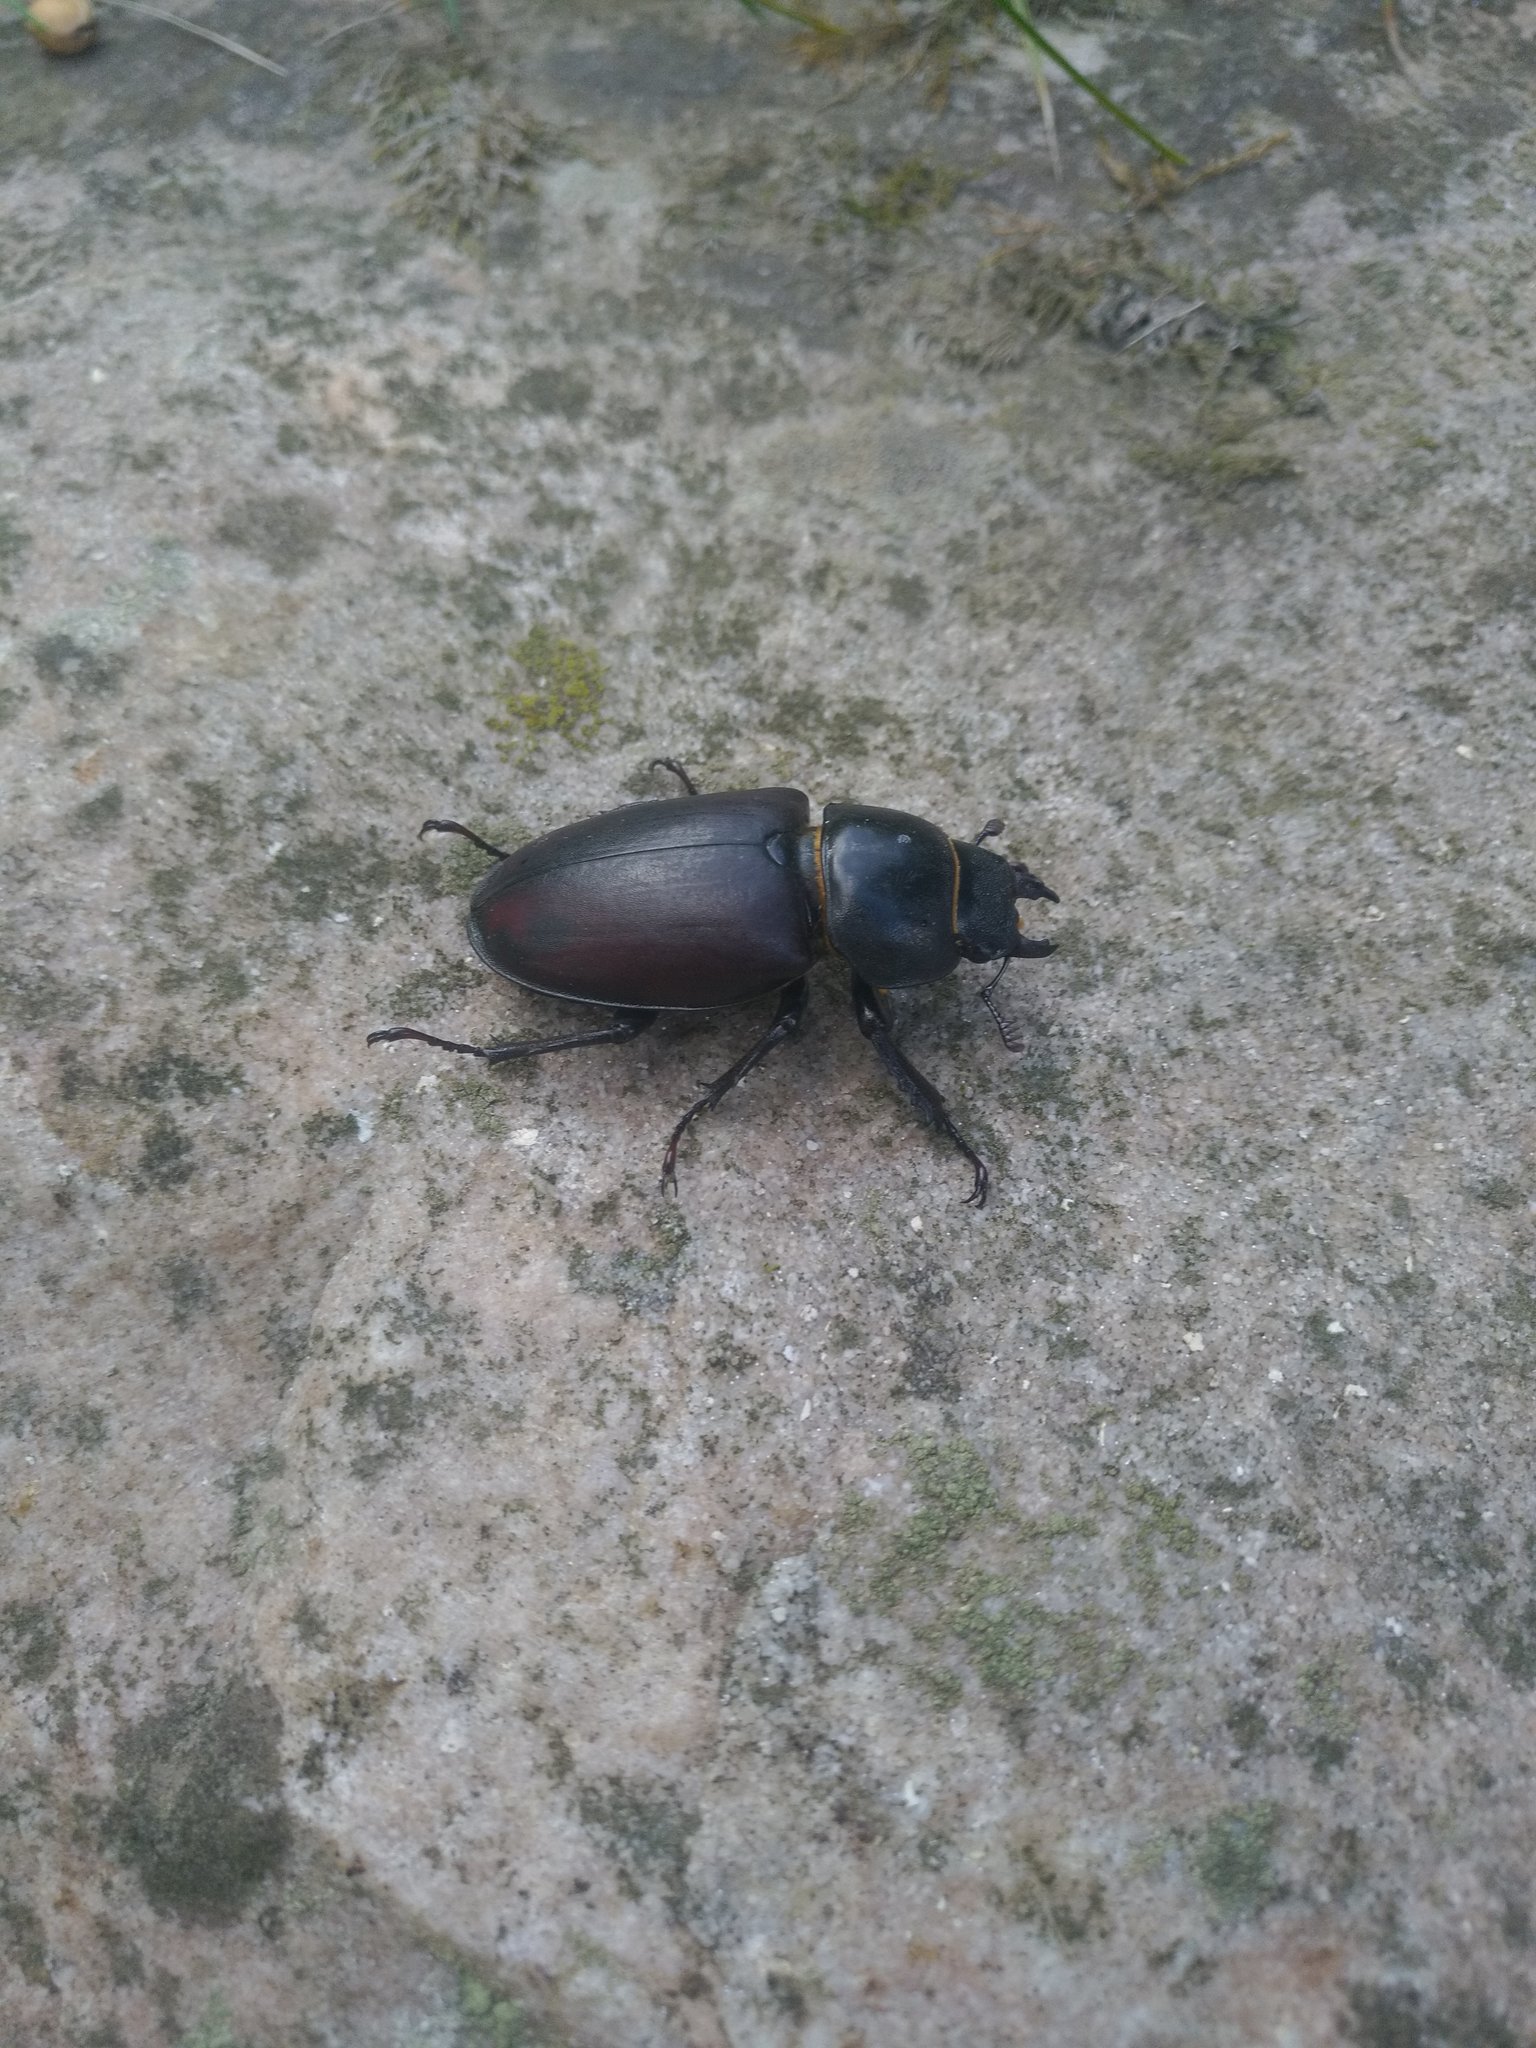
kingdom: Animalia
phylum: Arthropoda
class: Insecta
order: Coleoptera
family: Lucanidae
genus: Lucanus
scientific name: Lucanus cervus
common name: Stag beetle
